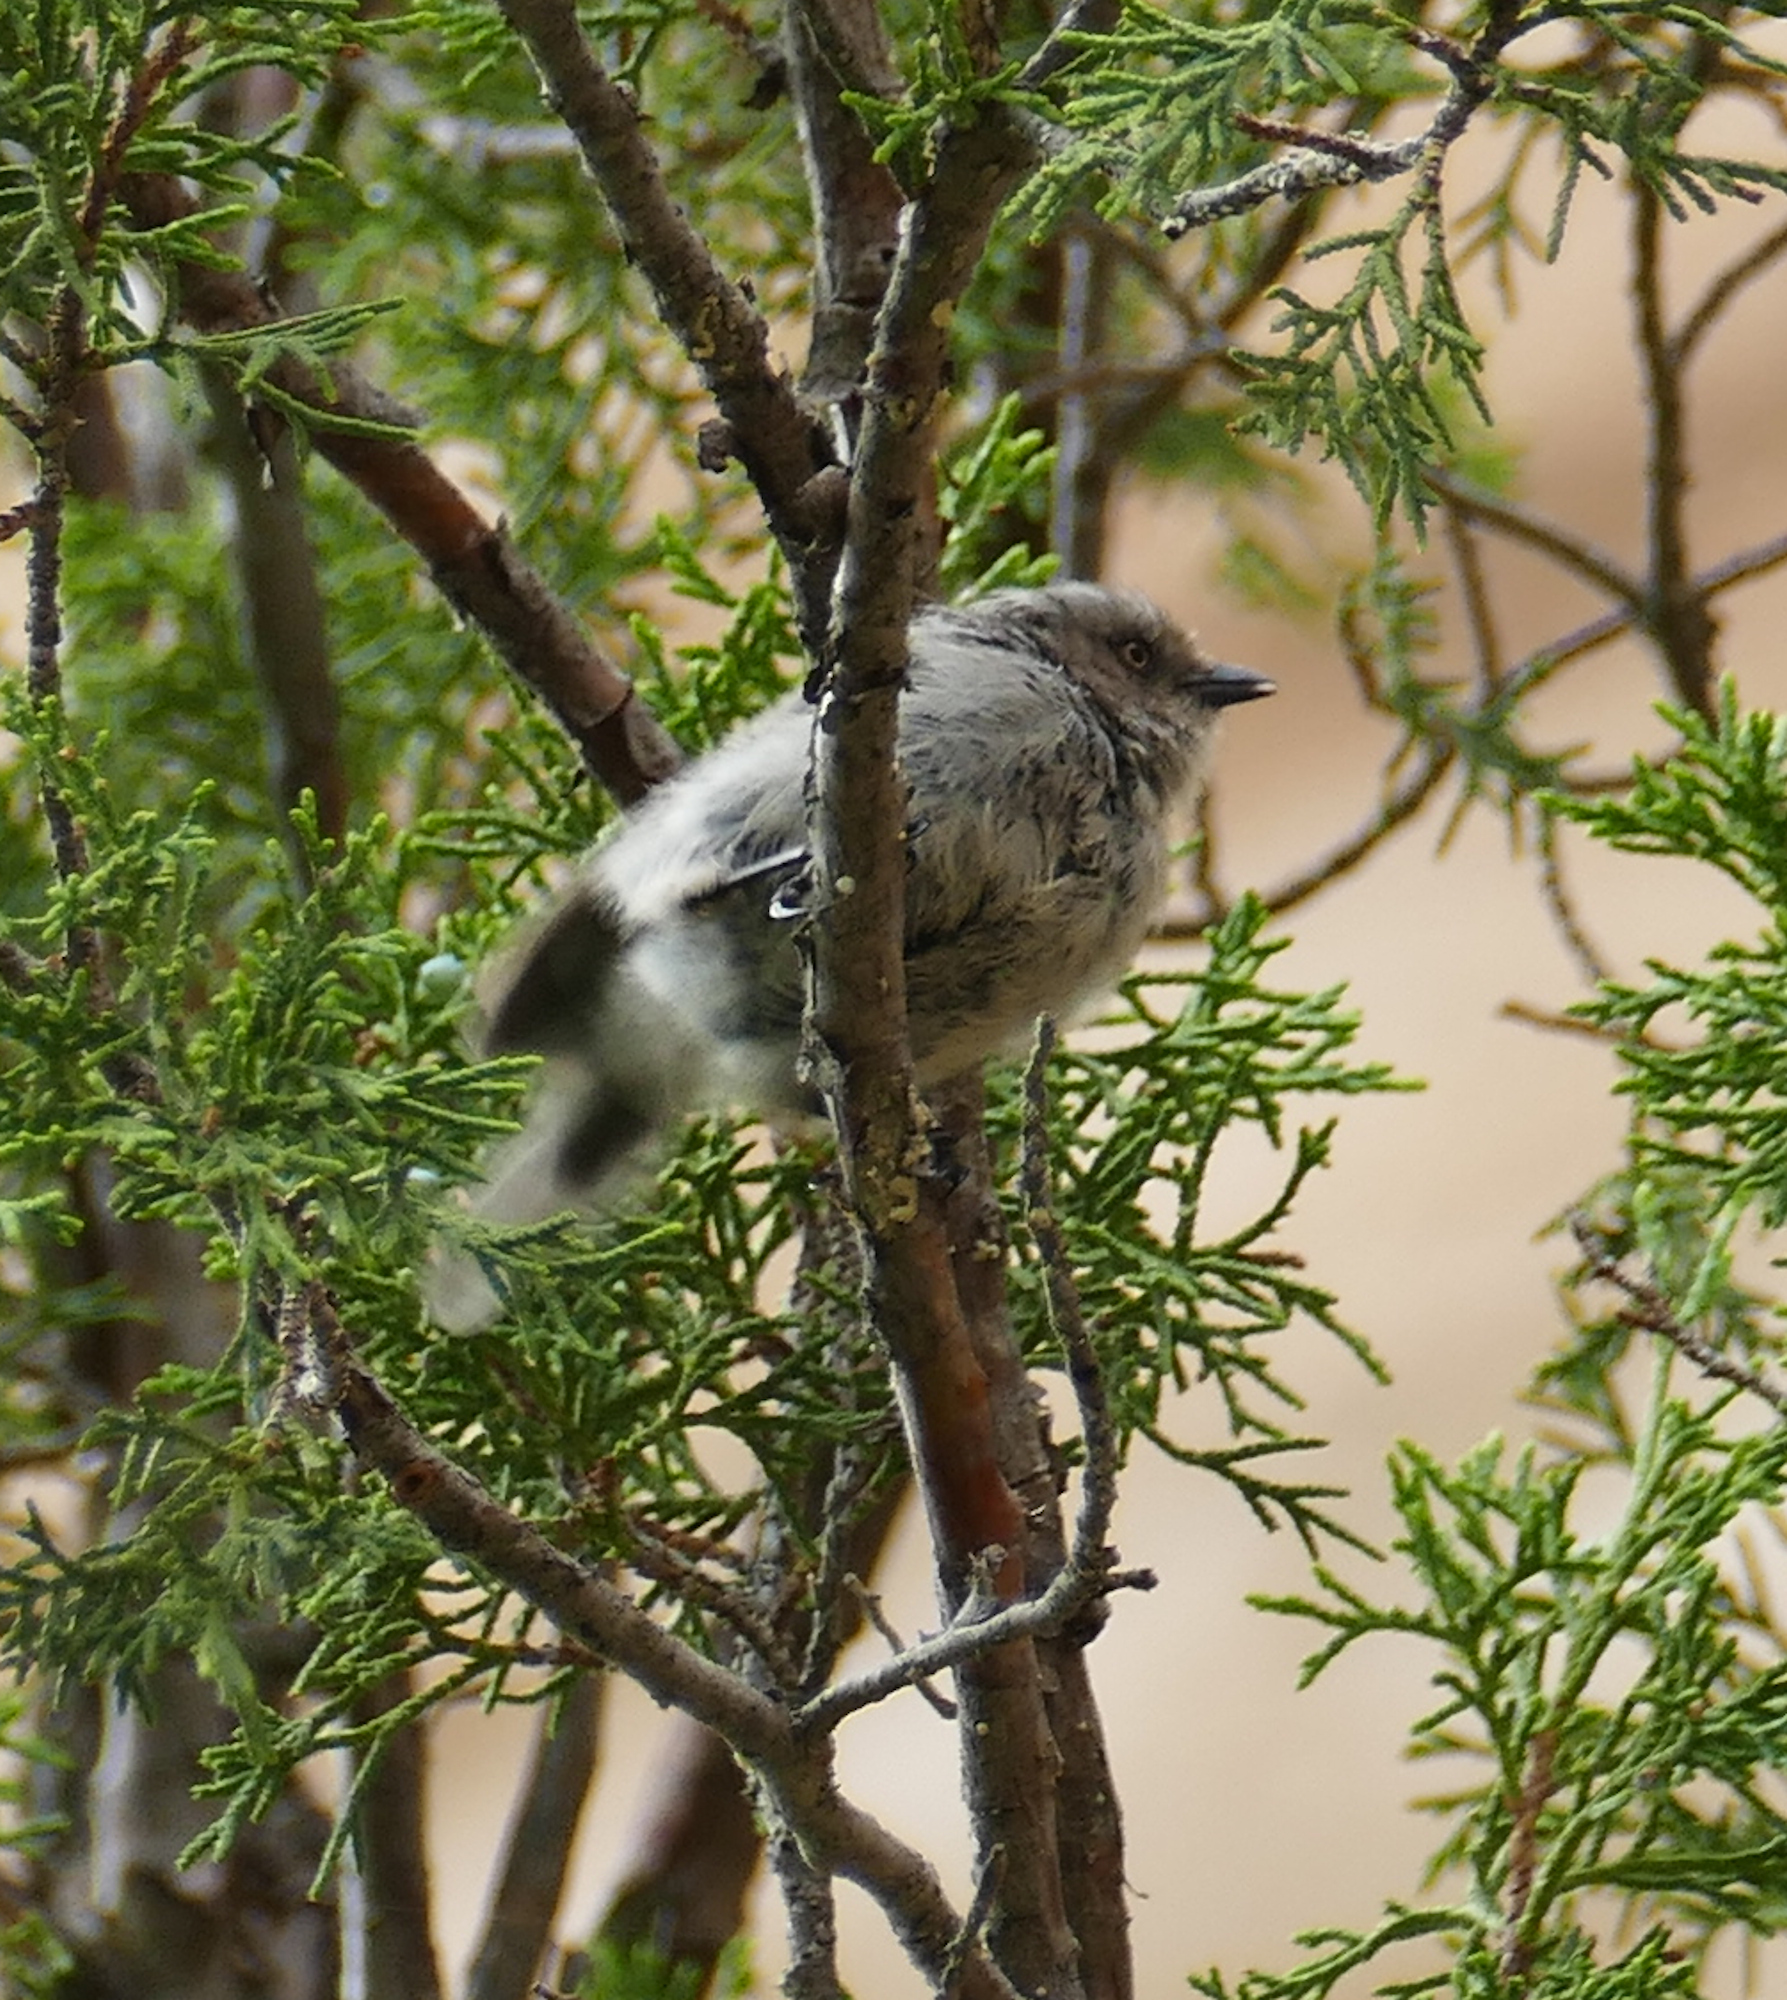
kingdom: Animalia
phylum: Chordata
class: Aves
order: Passeriformes
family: Aegithalidae
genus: Psaltriparus
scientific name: Psaltriparus minimus
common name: American bushtit
